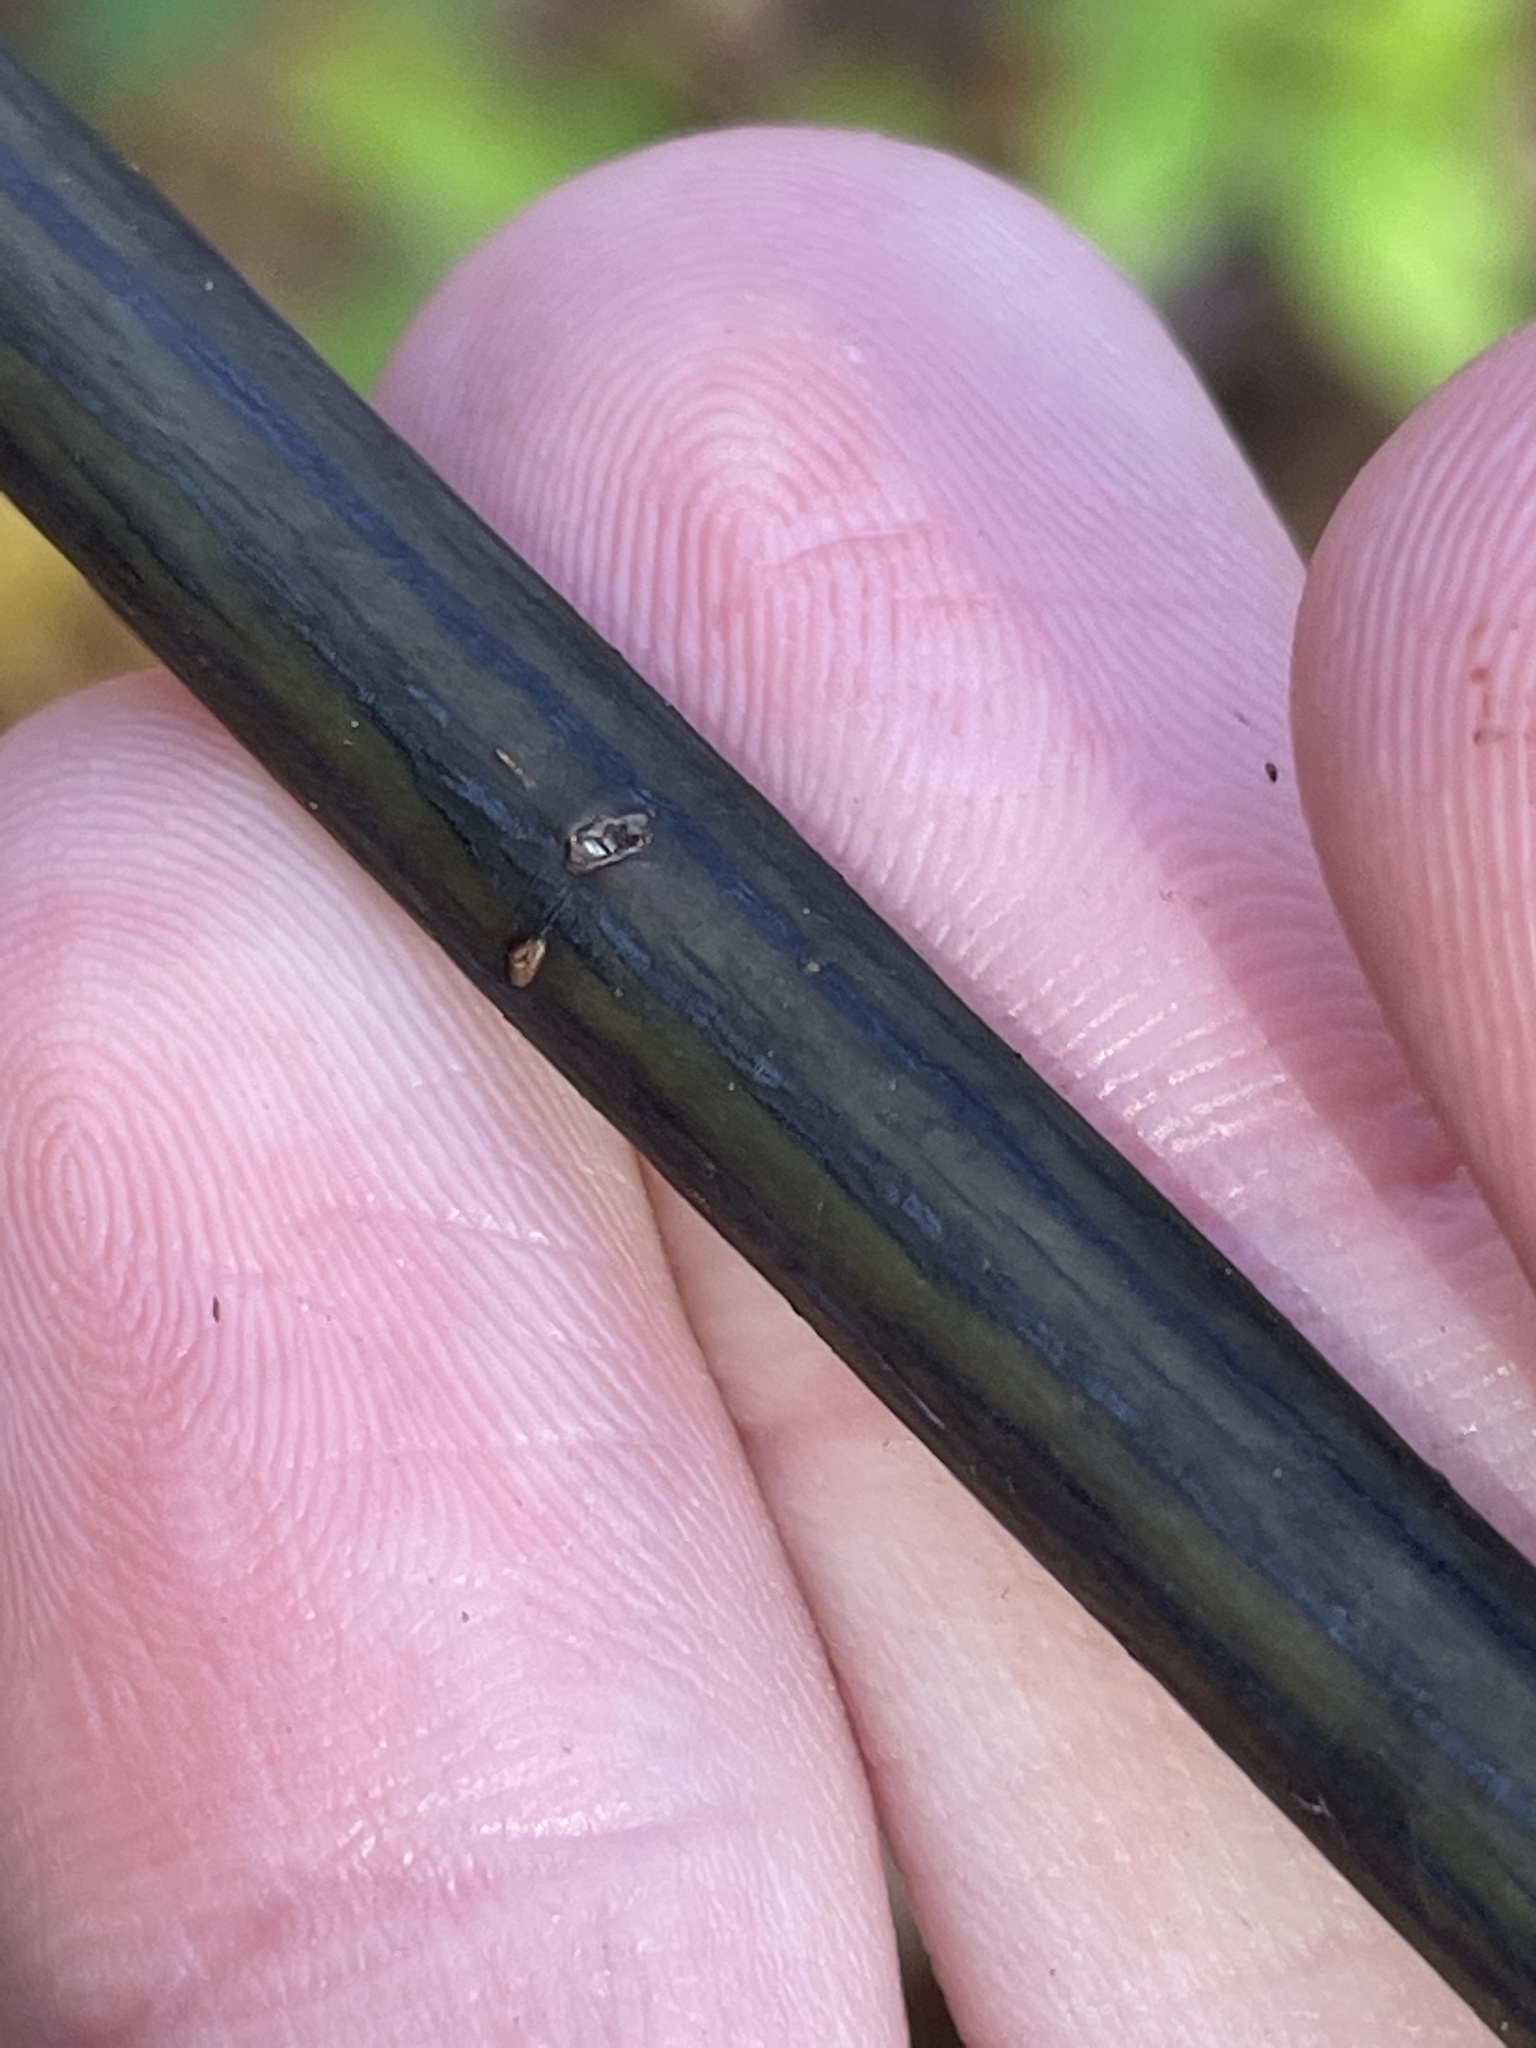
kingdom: Plantae
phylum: Tracheophyta
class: Magnoliopsida
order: Sapindales
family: Sapindaceae
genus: Acer
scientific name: Acer pensylvanicum
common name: Moosewood
